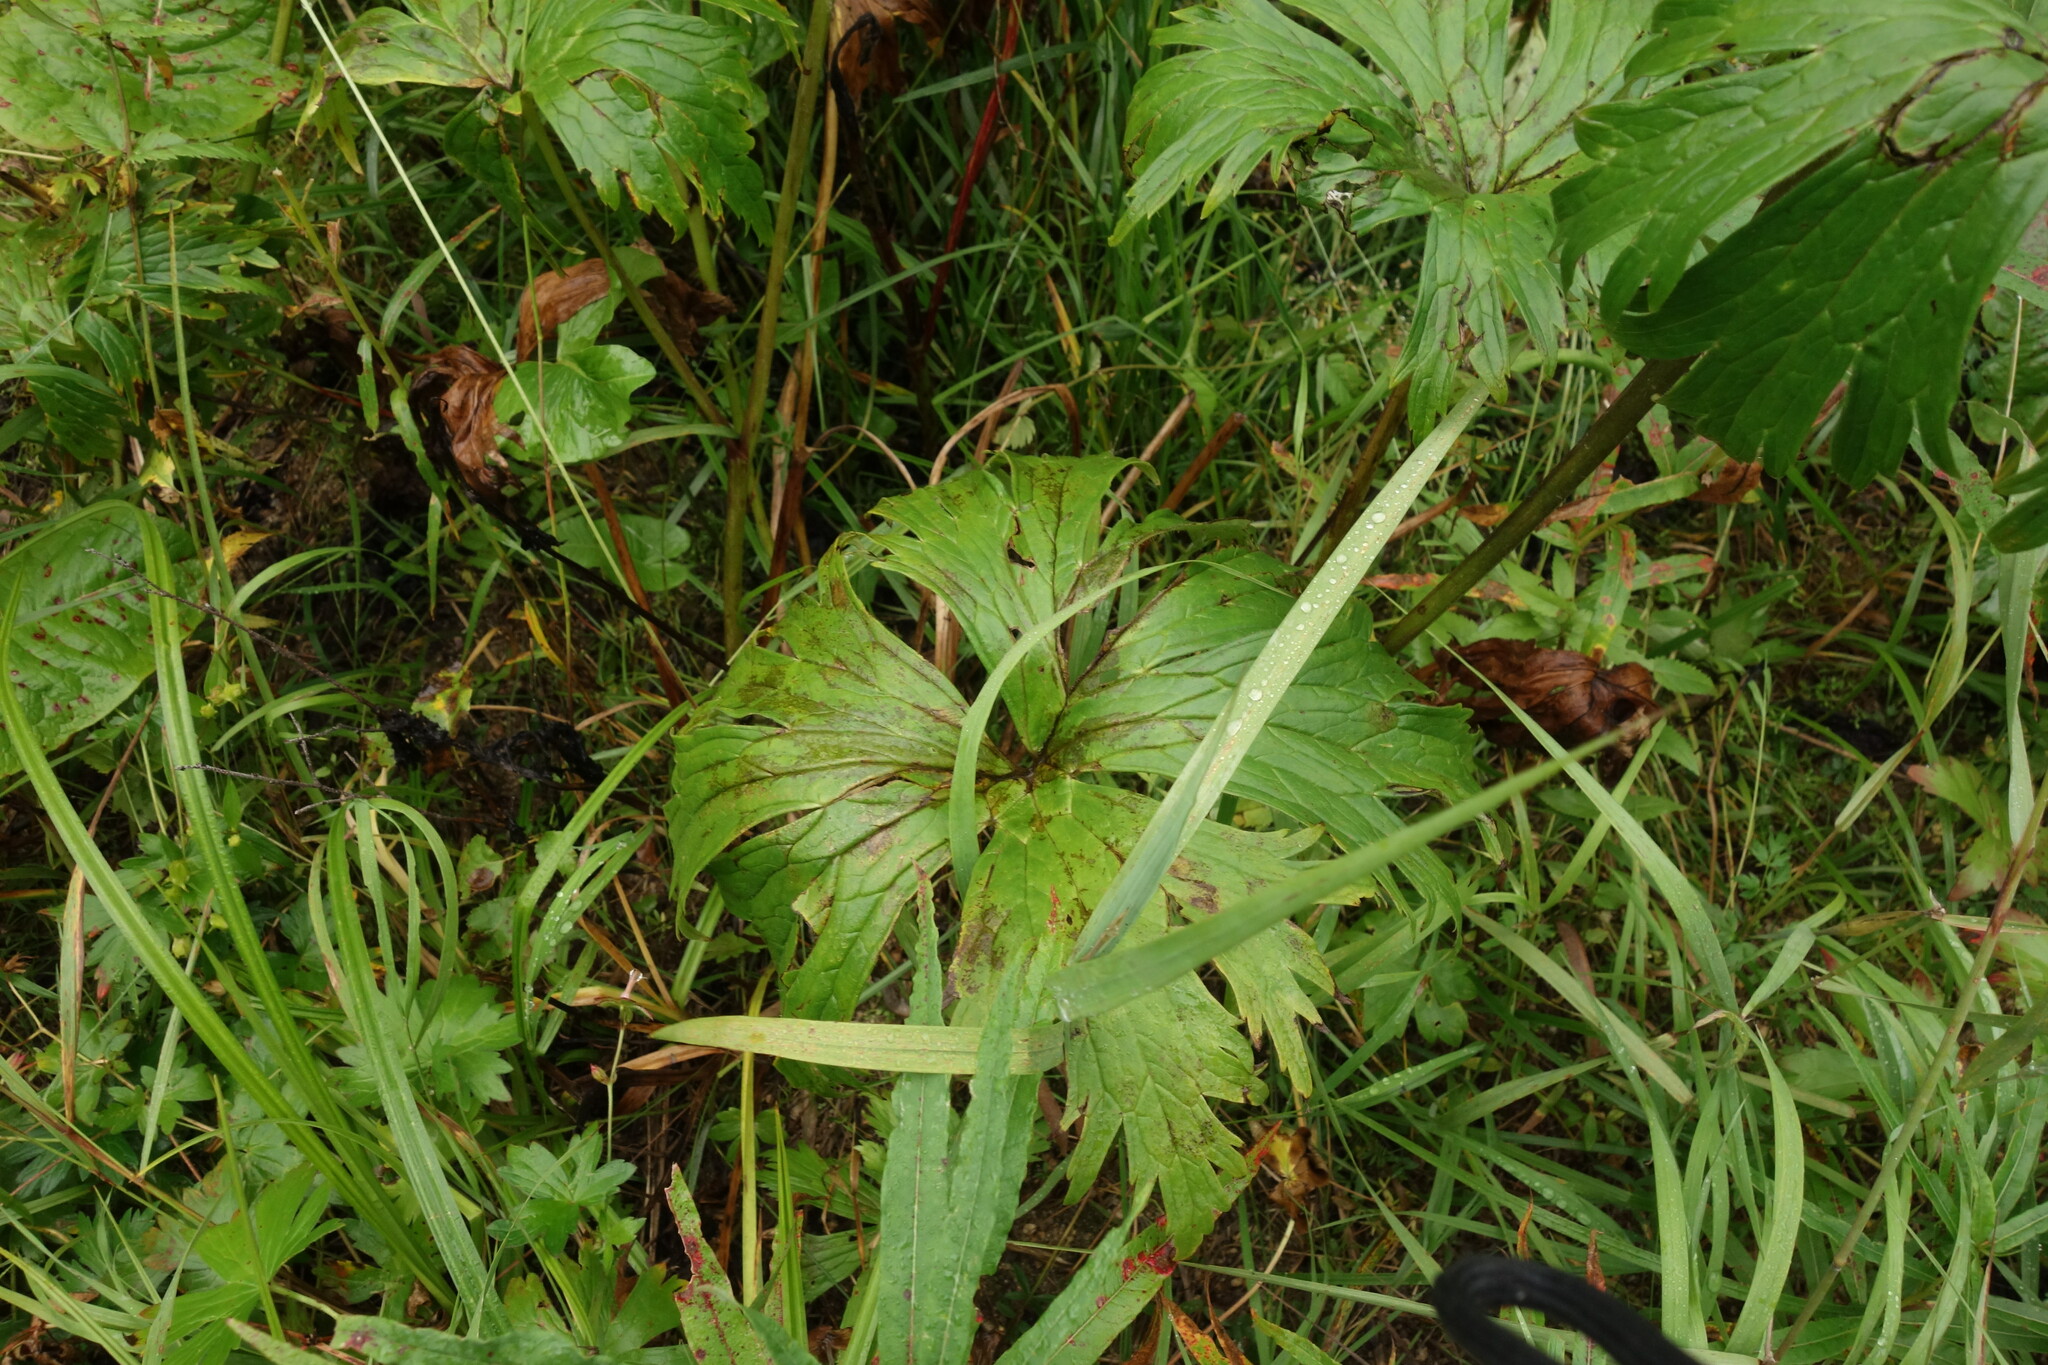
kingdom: Plantae
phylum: Tracheophyta
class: Magnoliopsida
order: Ranunculales
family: Ranunculaceae
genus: Aconitum
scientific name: Aconitum septentrionale
